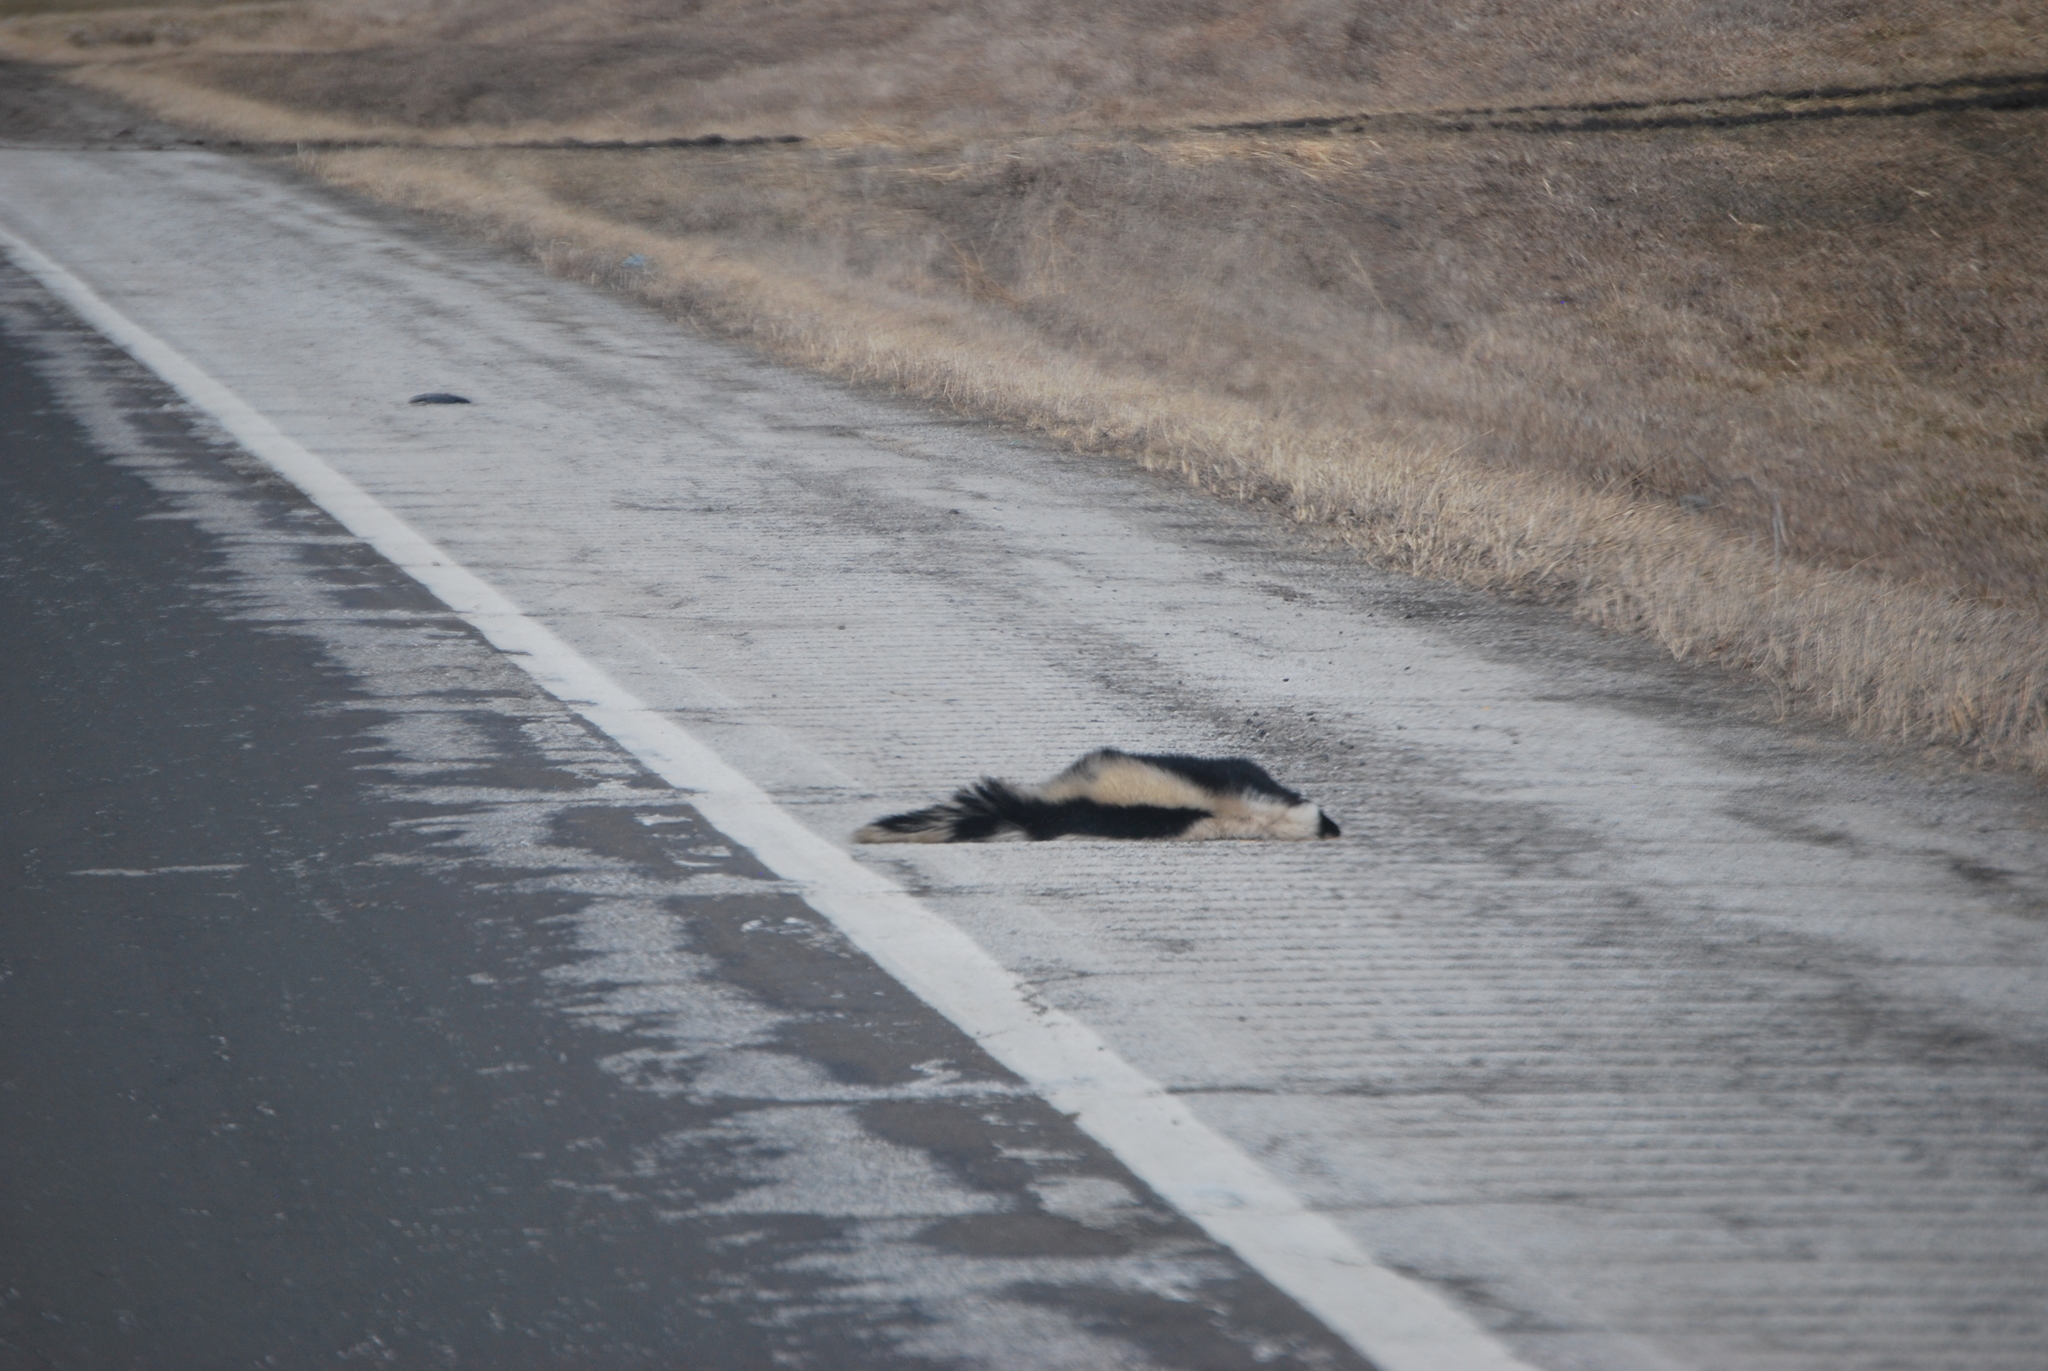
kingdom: Animalia
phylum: Chordata
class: Mammalia
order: Carnivora
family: Mephitidae
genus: Mephitis
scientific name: Mephitis mephitis
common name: Striped skunk
